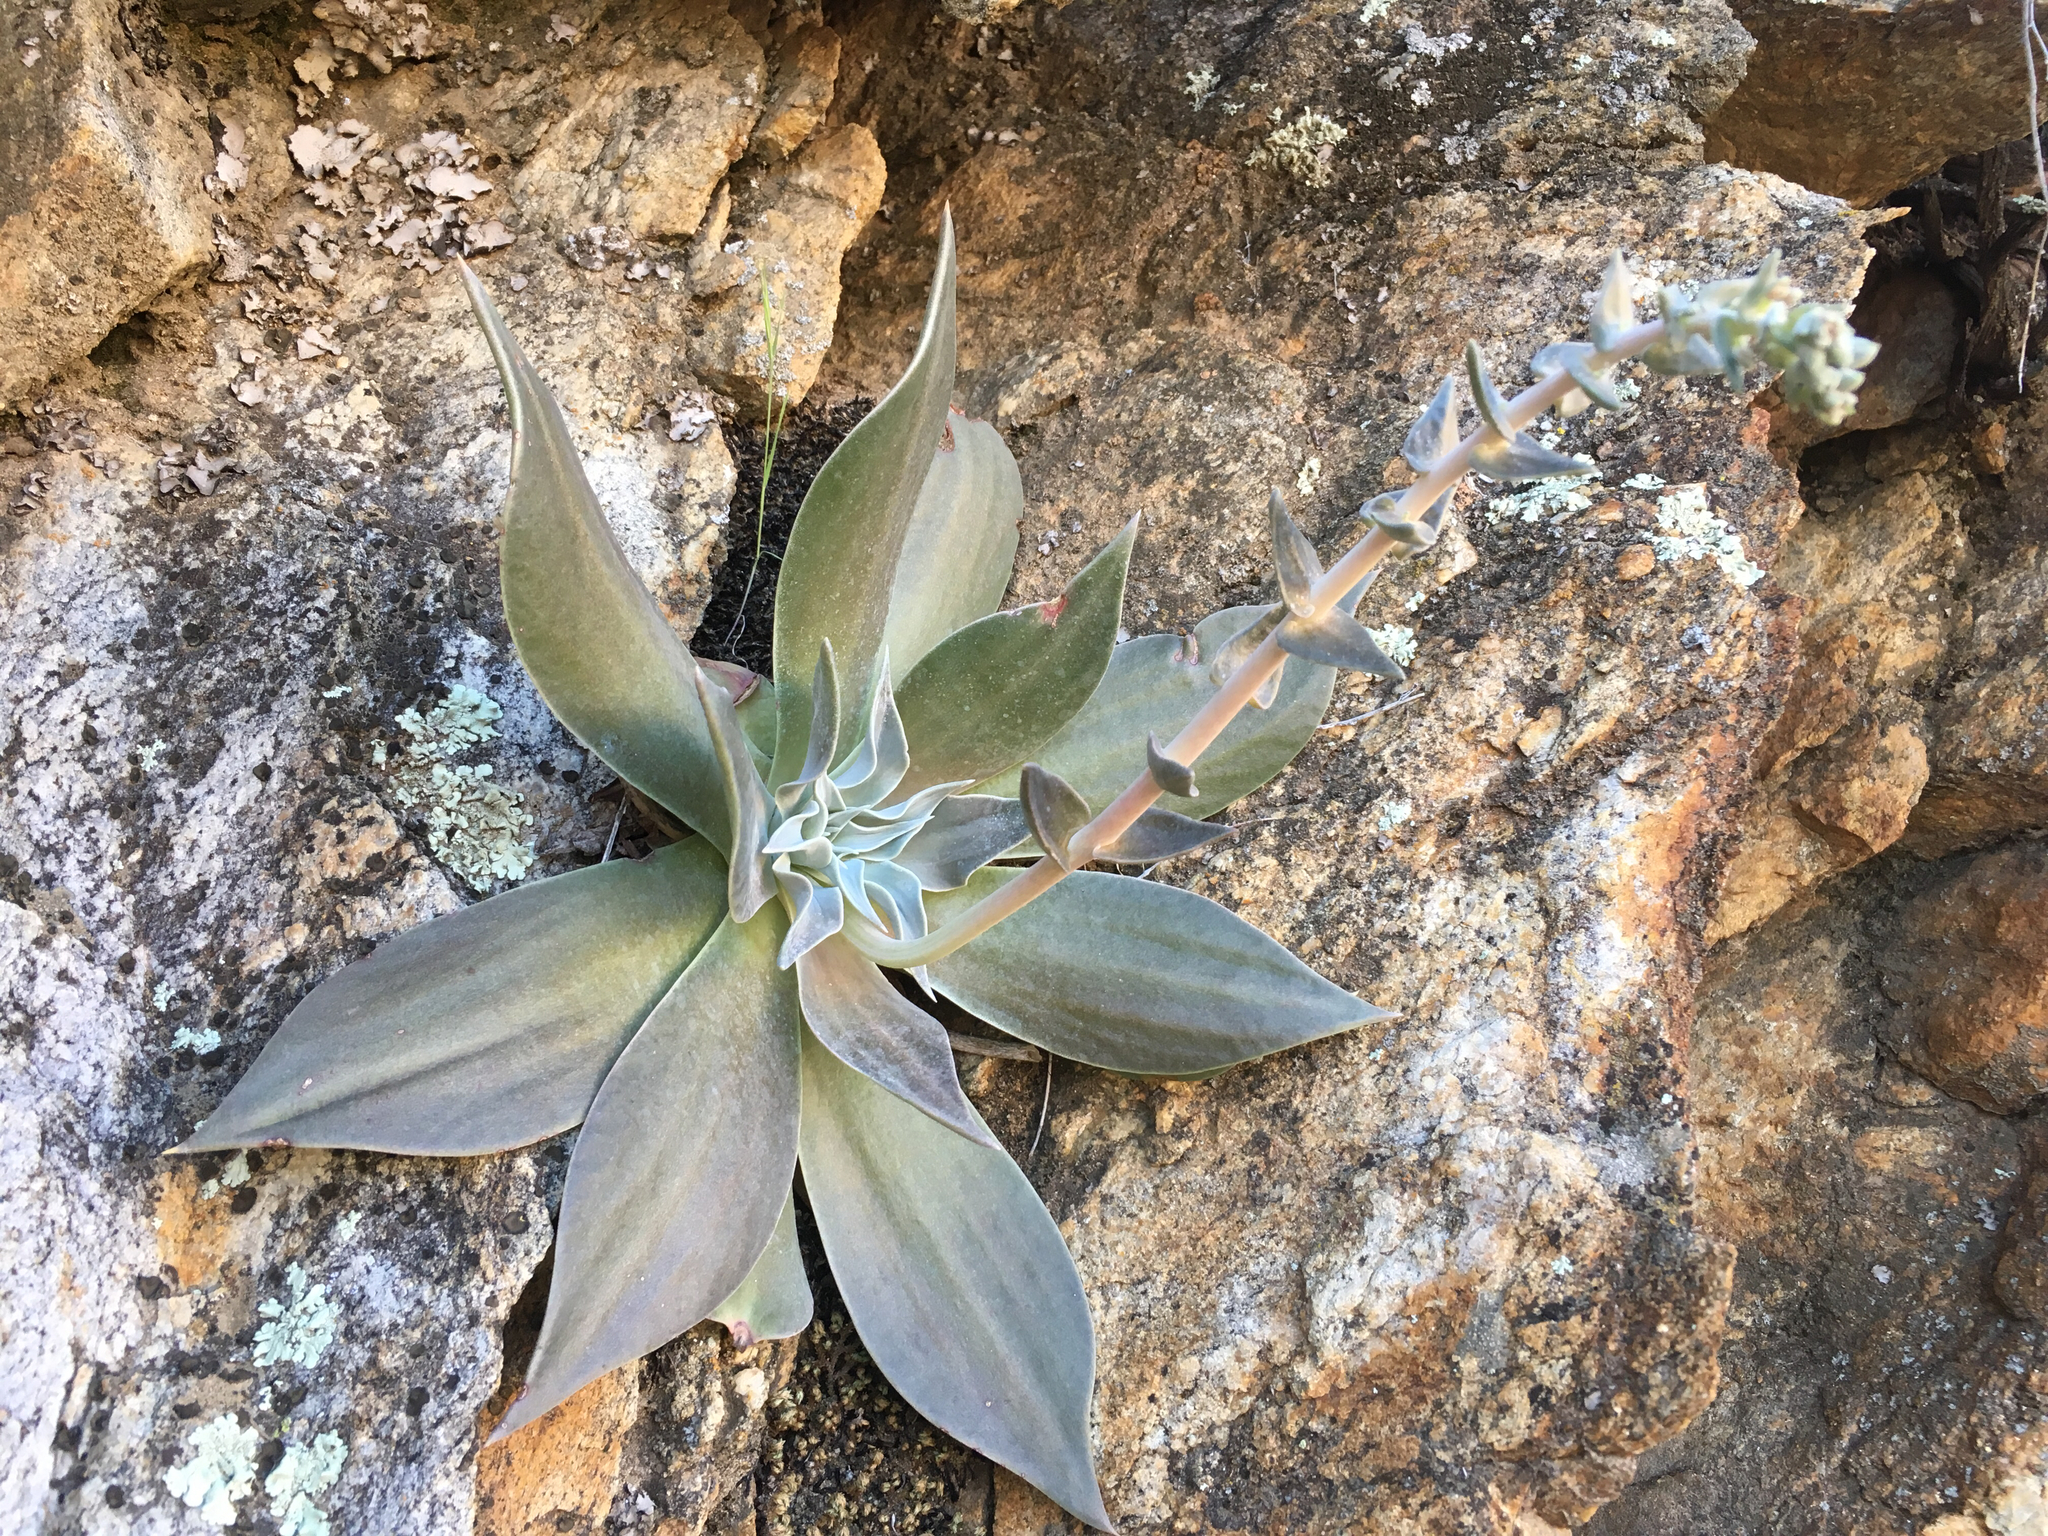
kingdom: Plantae
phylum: Tracheophyta
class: Magnoliopsida
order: Saxifragales
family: Crassulaceae
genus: Dudleya
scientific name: Dudleya arizonica
